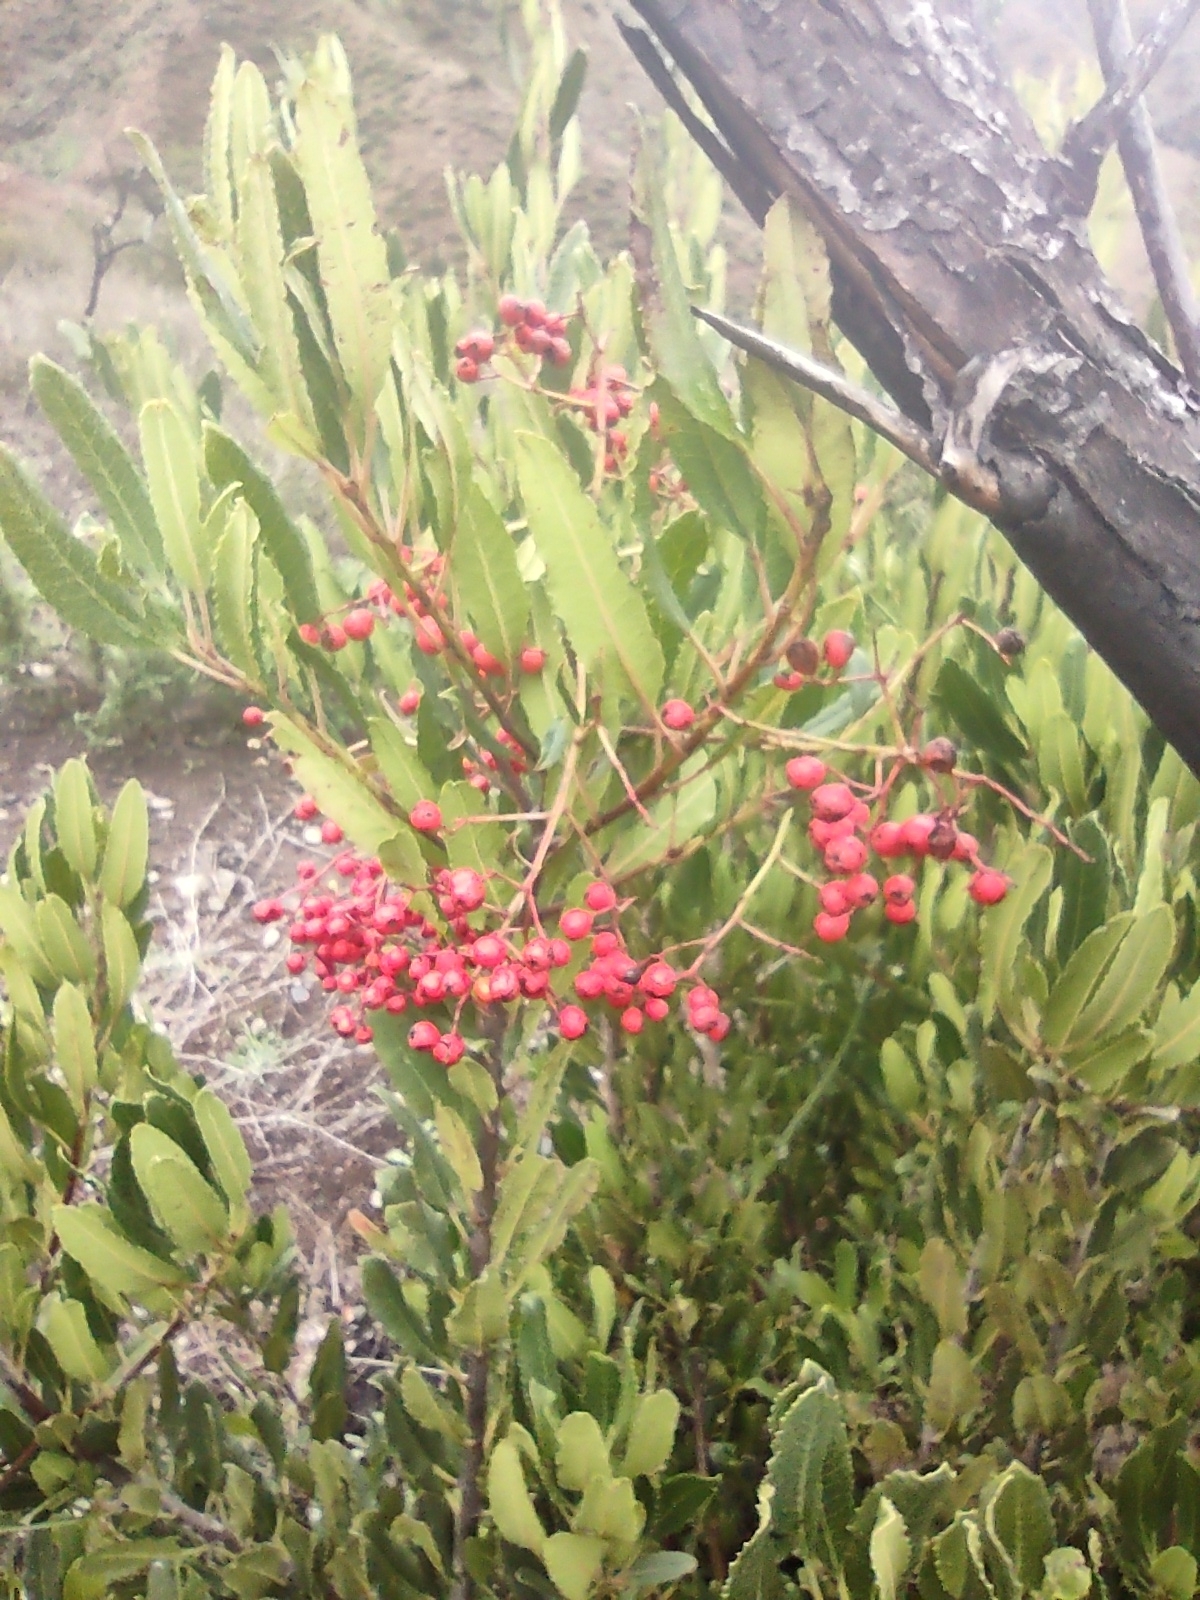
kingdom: Plantae
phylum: Tracheophyta
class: Magnoliopsida
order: Rosales
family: Rosaceae
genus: Heteromeles
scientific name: Heteromeles arbutifolia
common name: California-holly
